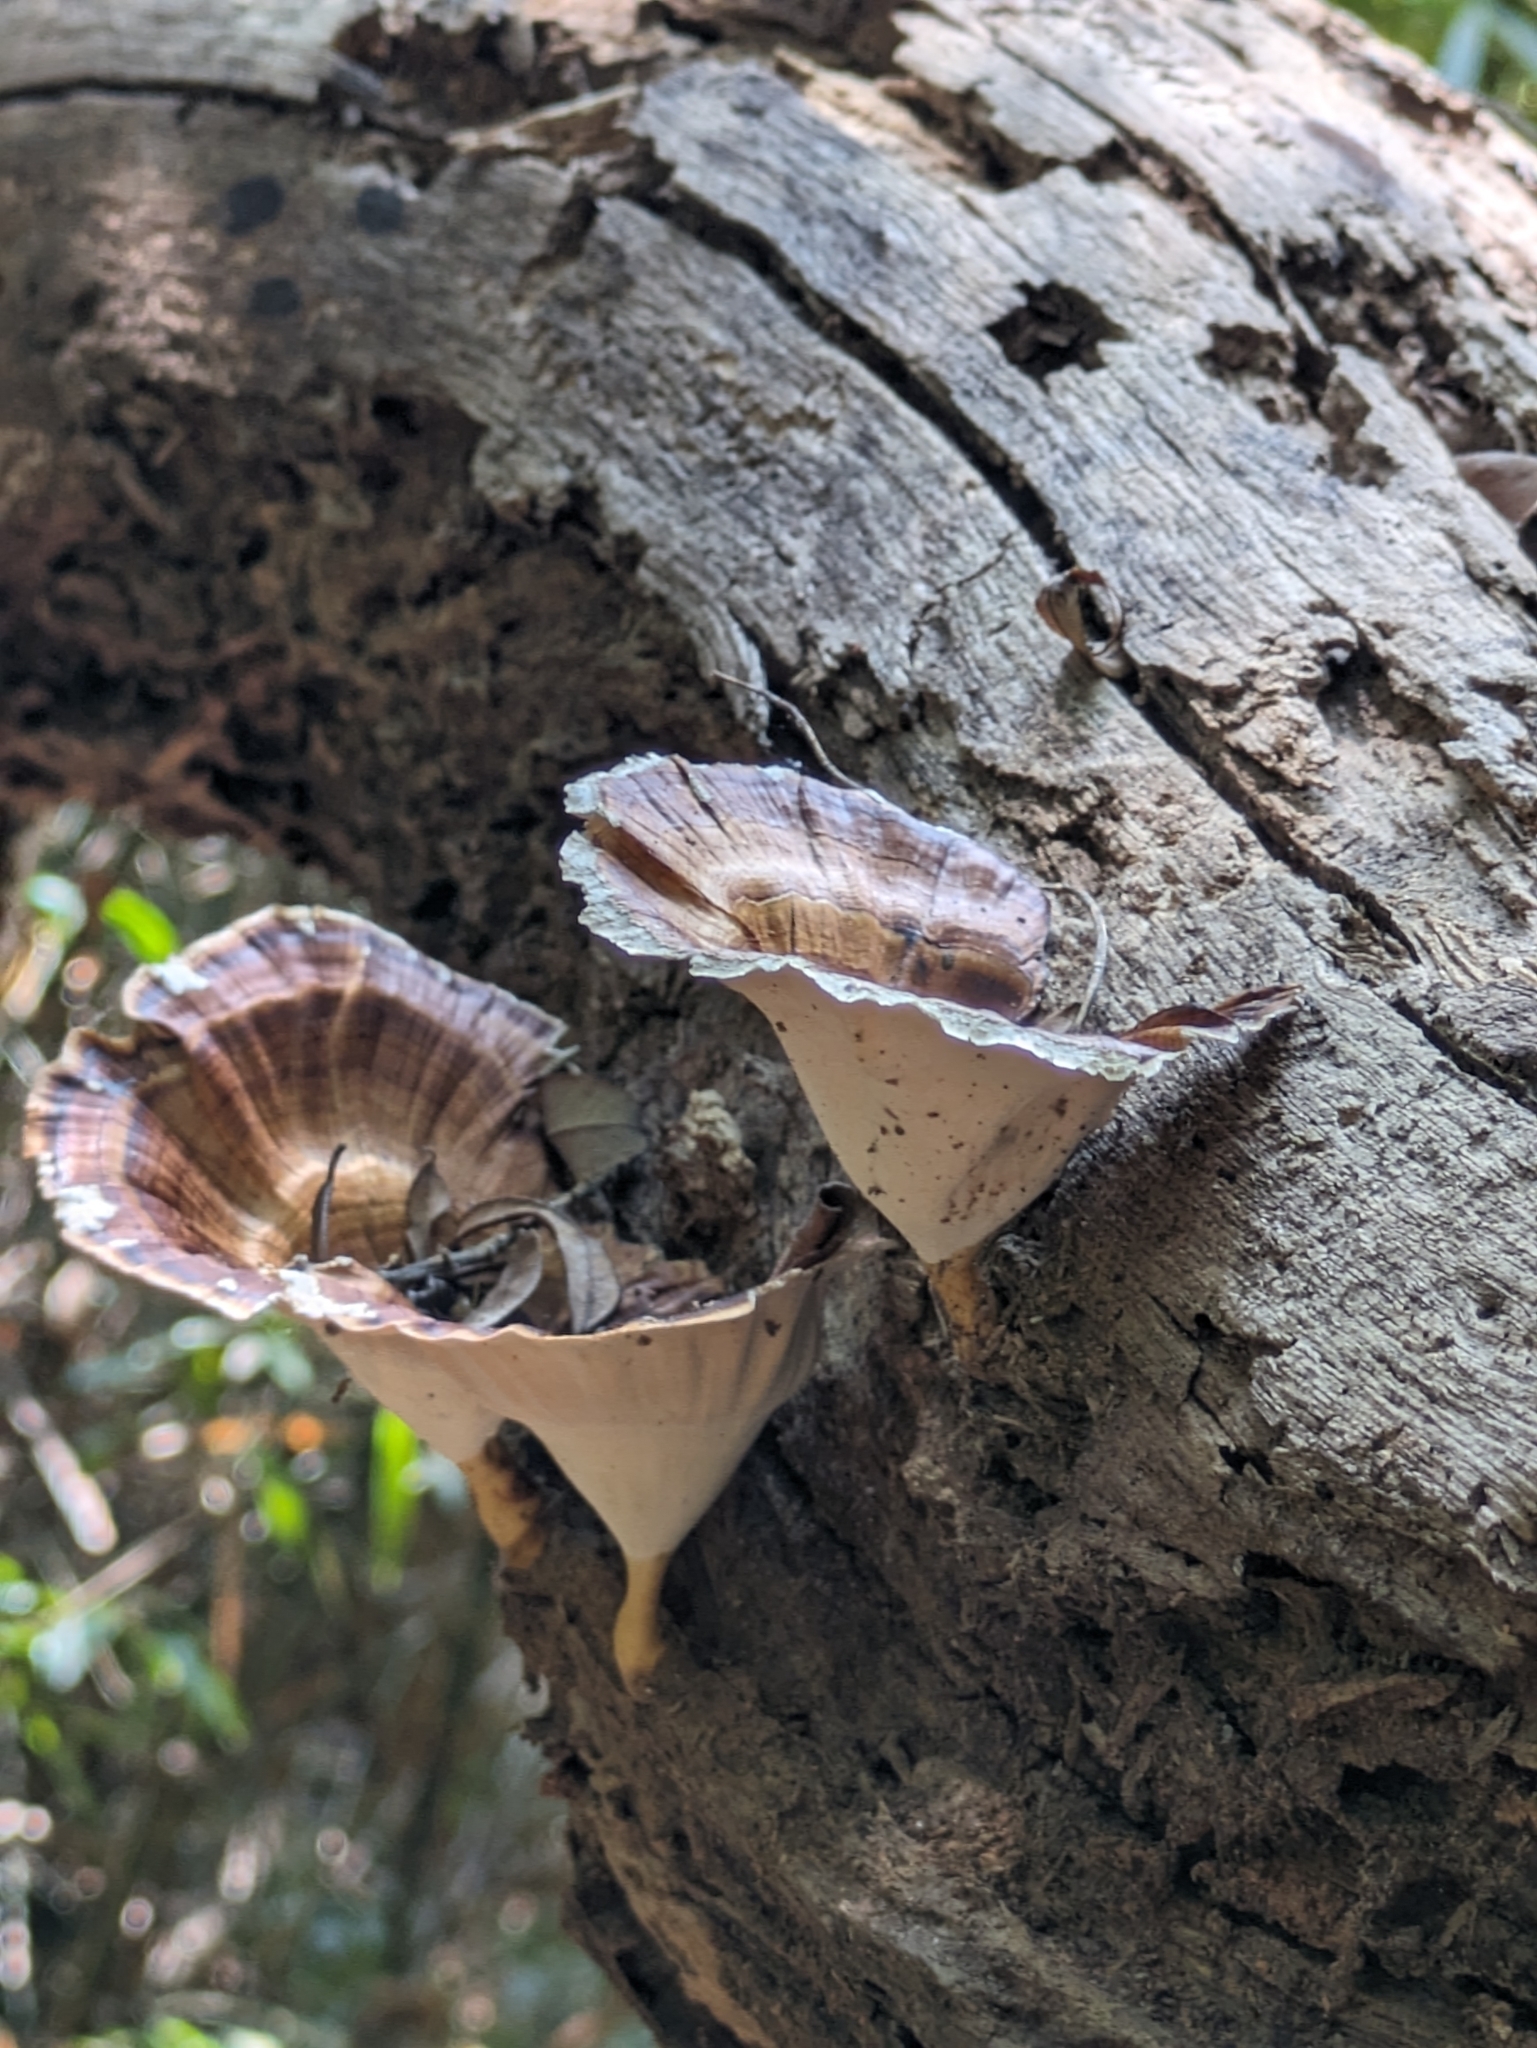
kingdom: Fungi
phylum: Basidiomycota
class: Agaricomycetes
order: Polyporales
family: Polyporaceae
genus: Microporus
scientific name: Microporus xanthopus
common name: Yellow-stemmed micropore
